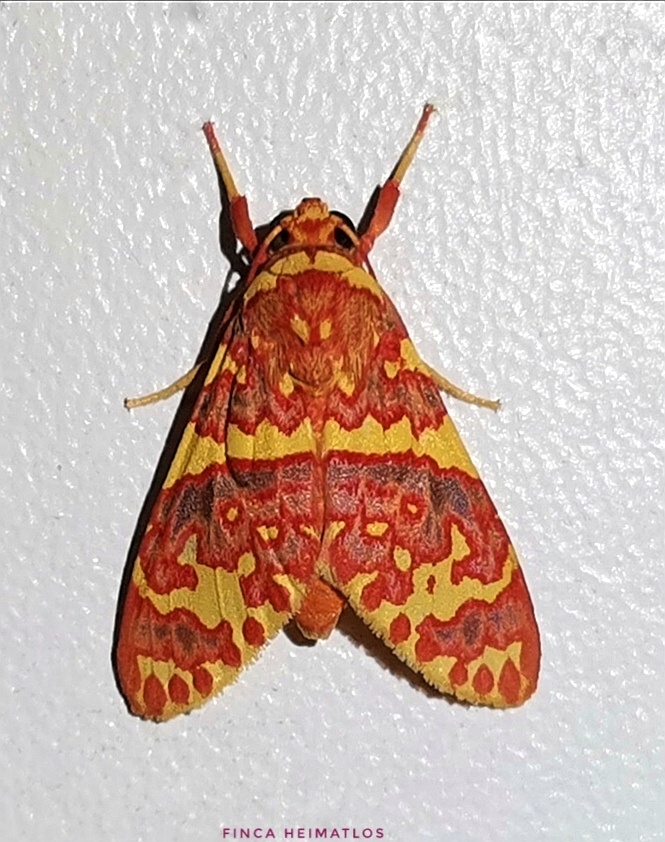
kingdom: Animalia
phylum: Arthropoda
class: Insecta
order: Lepidoptera
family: Erebidae
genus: Hyponerita
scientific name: Hyponerita similis
